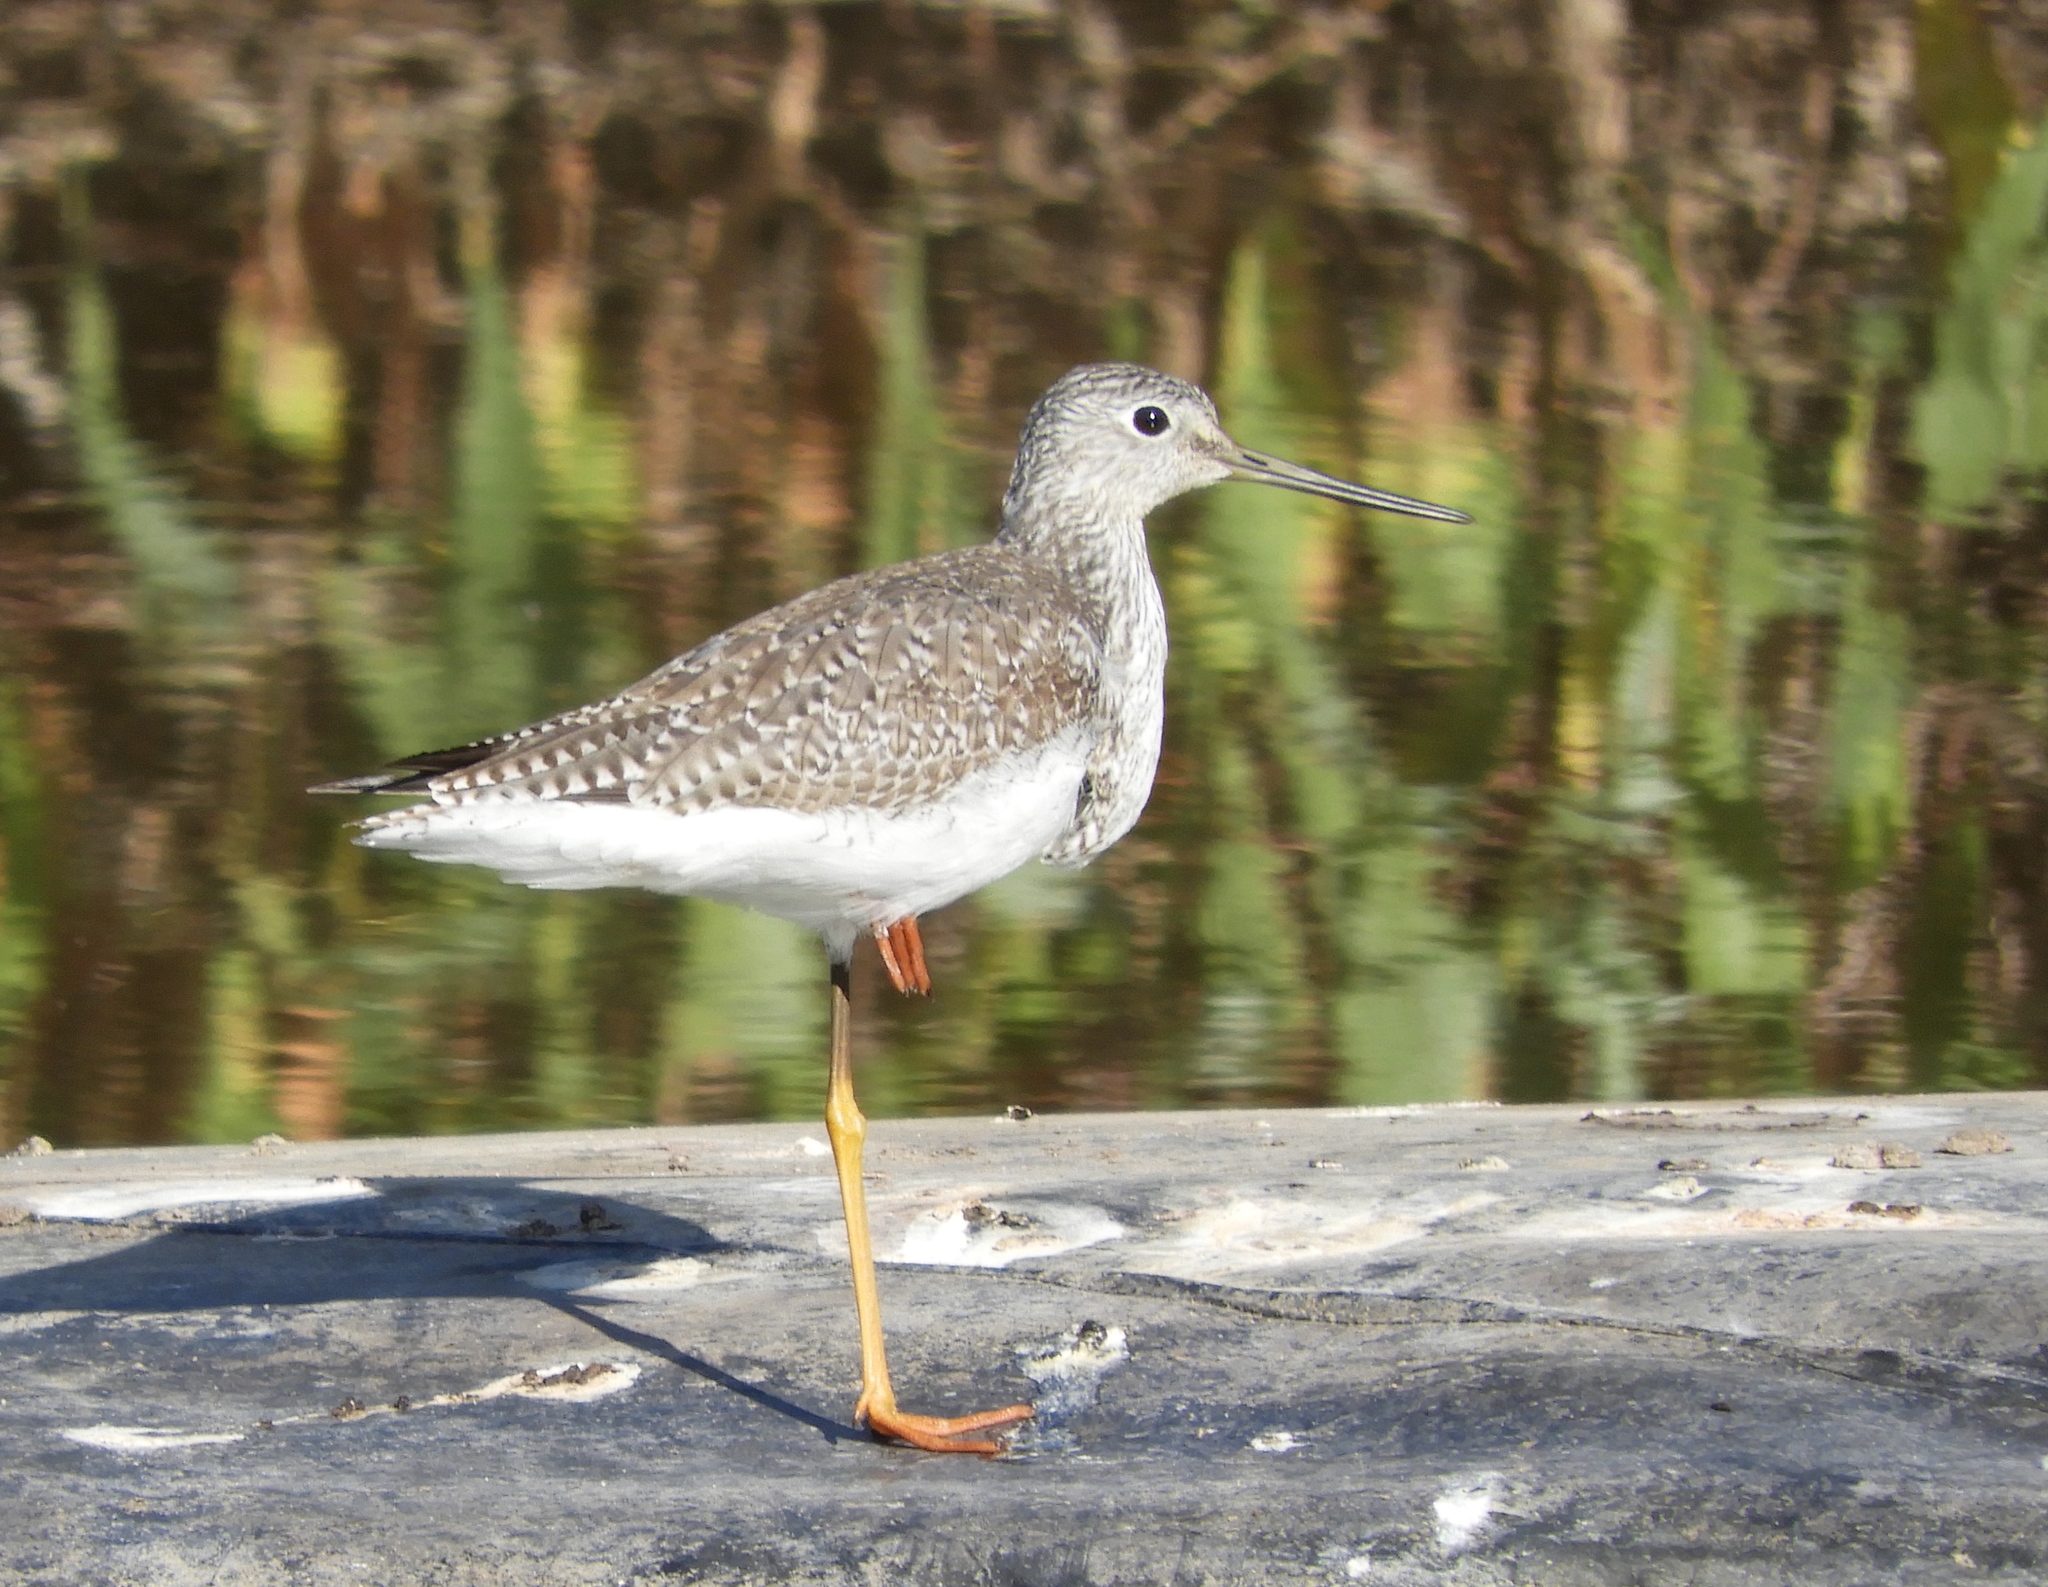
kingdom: Animalia
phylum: Chordata
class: Aves
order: Charadriiformes
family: Scolopacidae
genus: Tringa
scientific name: Tringa
